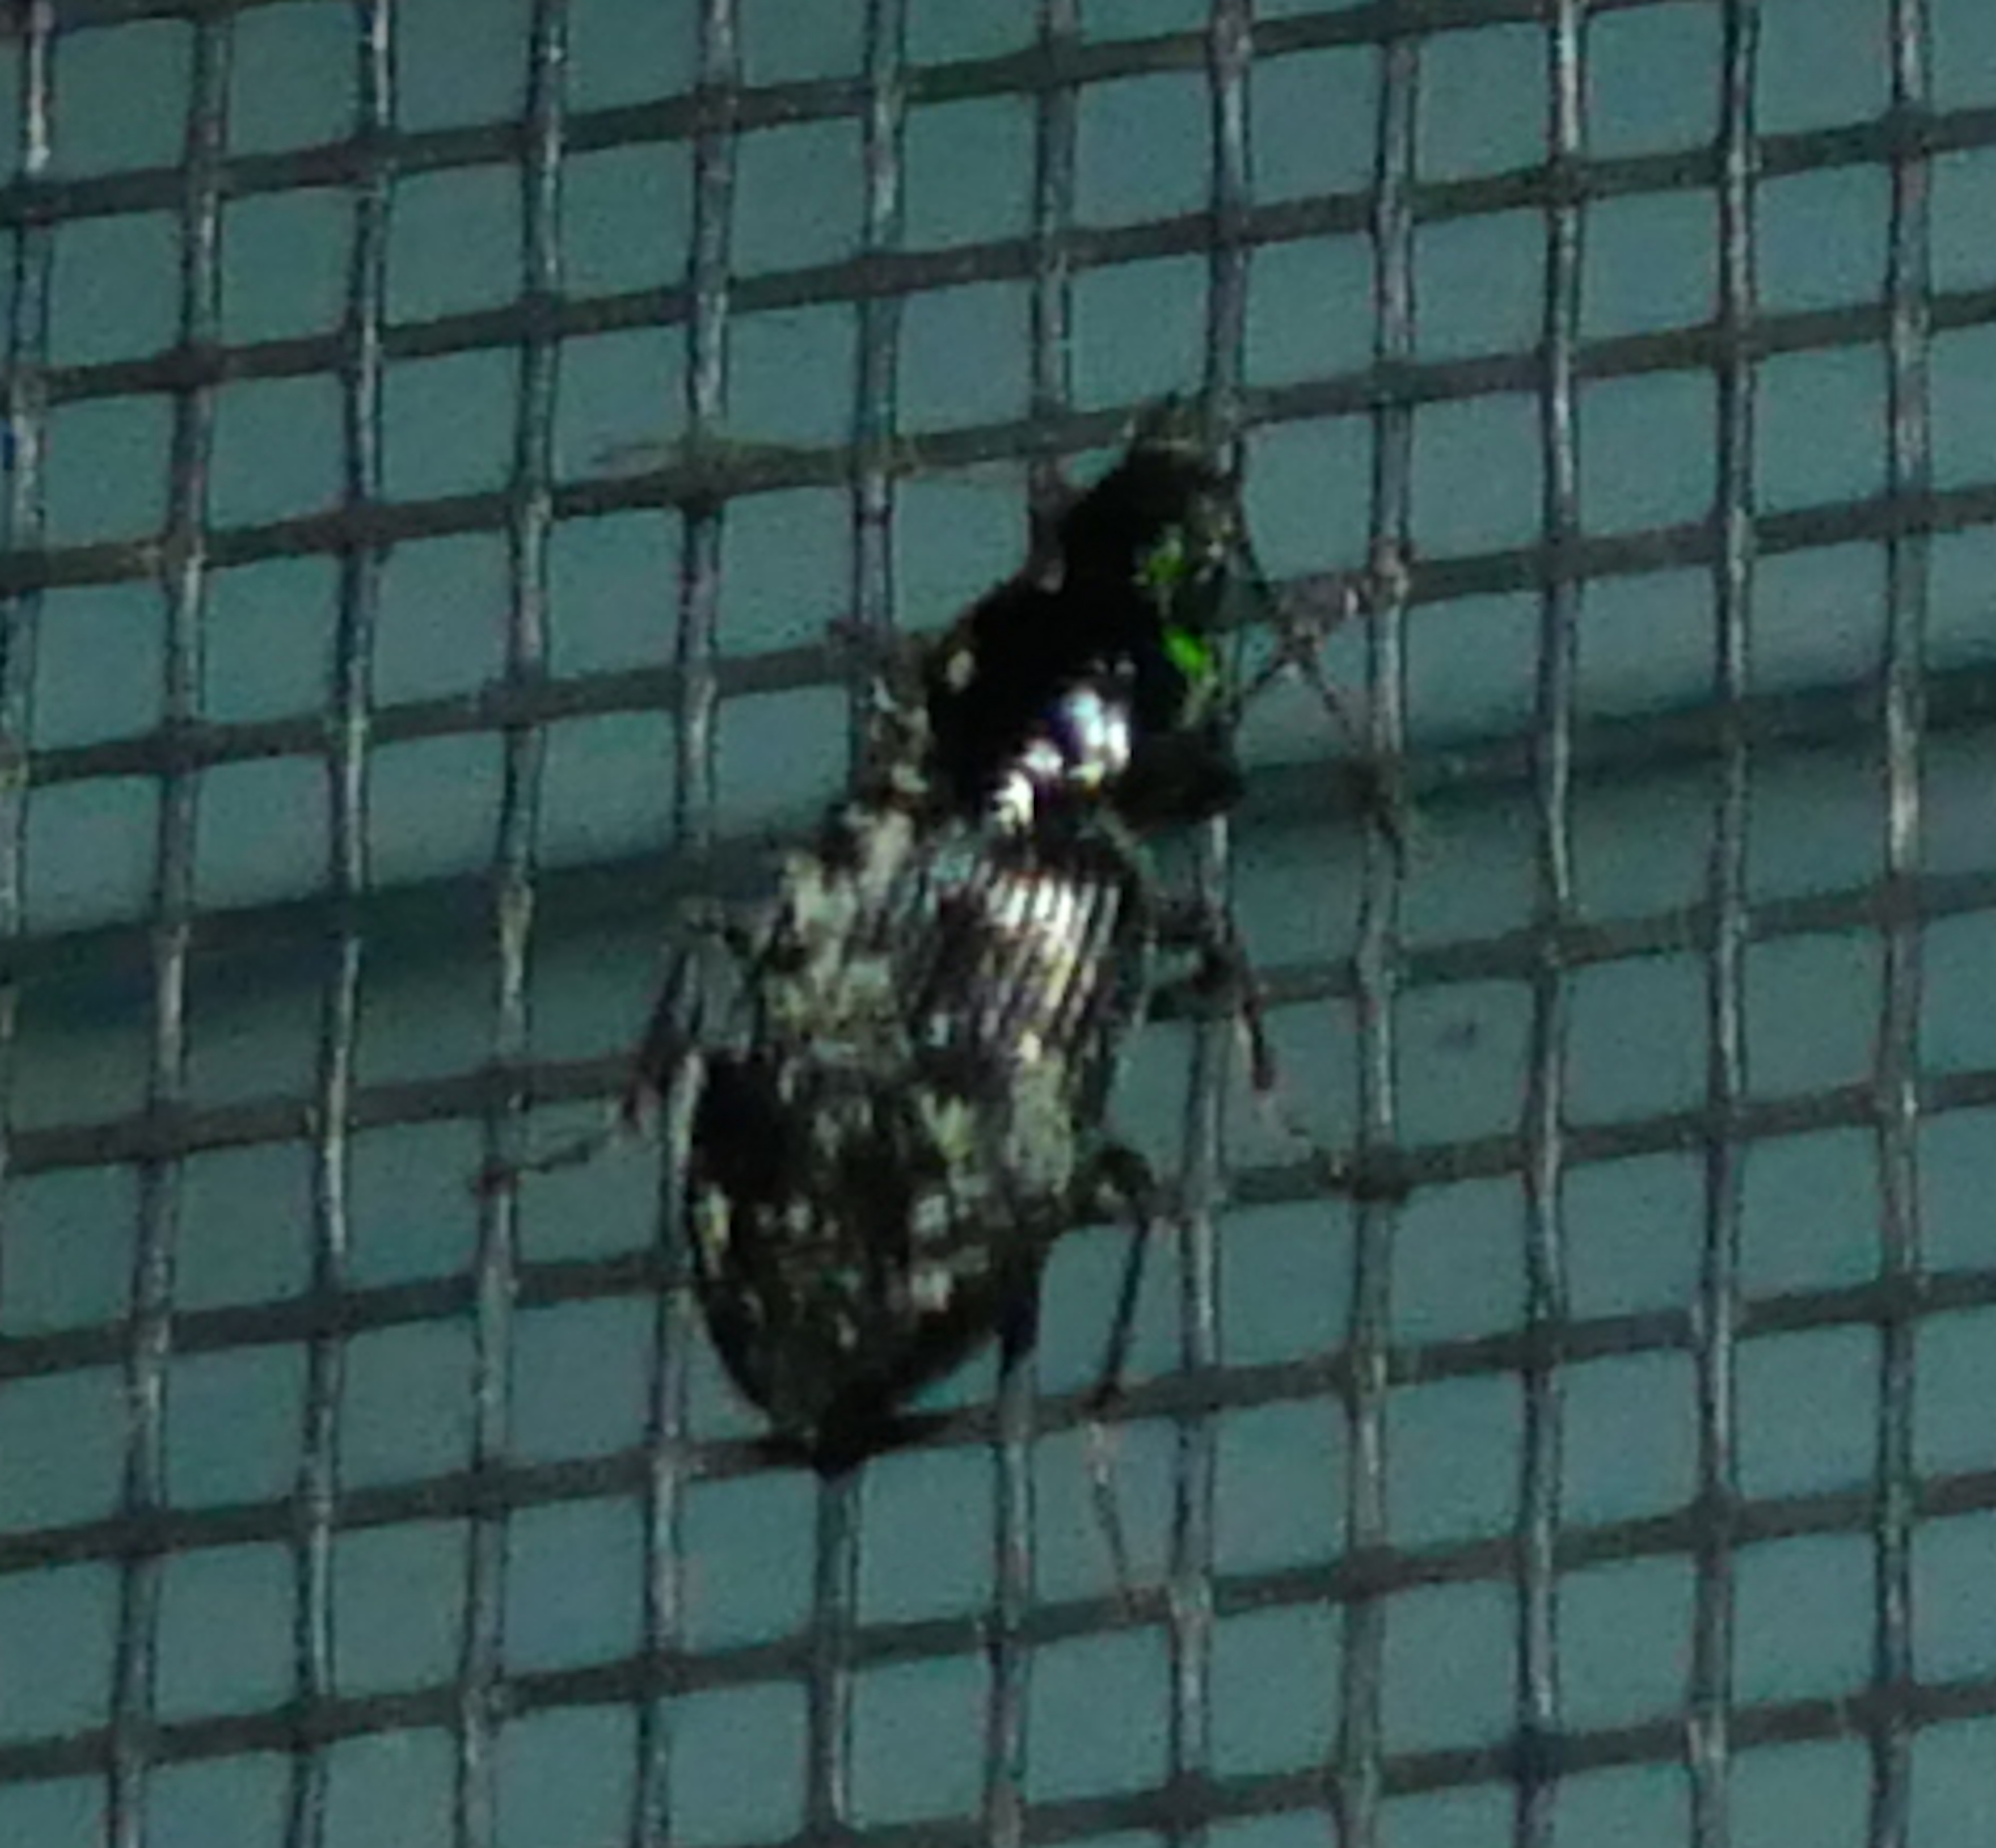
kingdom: Animalia
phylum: Arthropoda
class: Insecta
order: Coleoptera
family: Carabidae
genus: Agonum
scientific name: Agonum punctiforme
